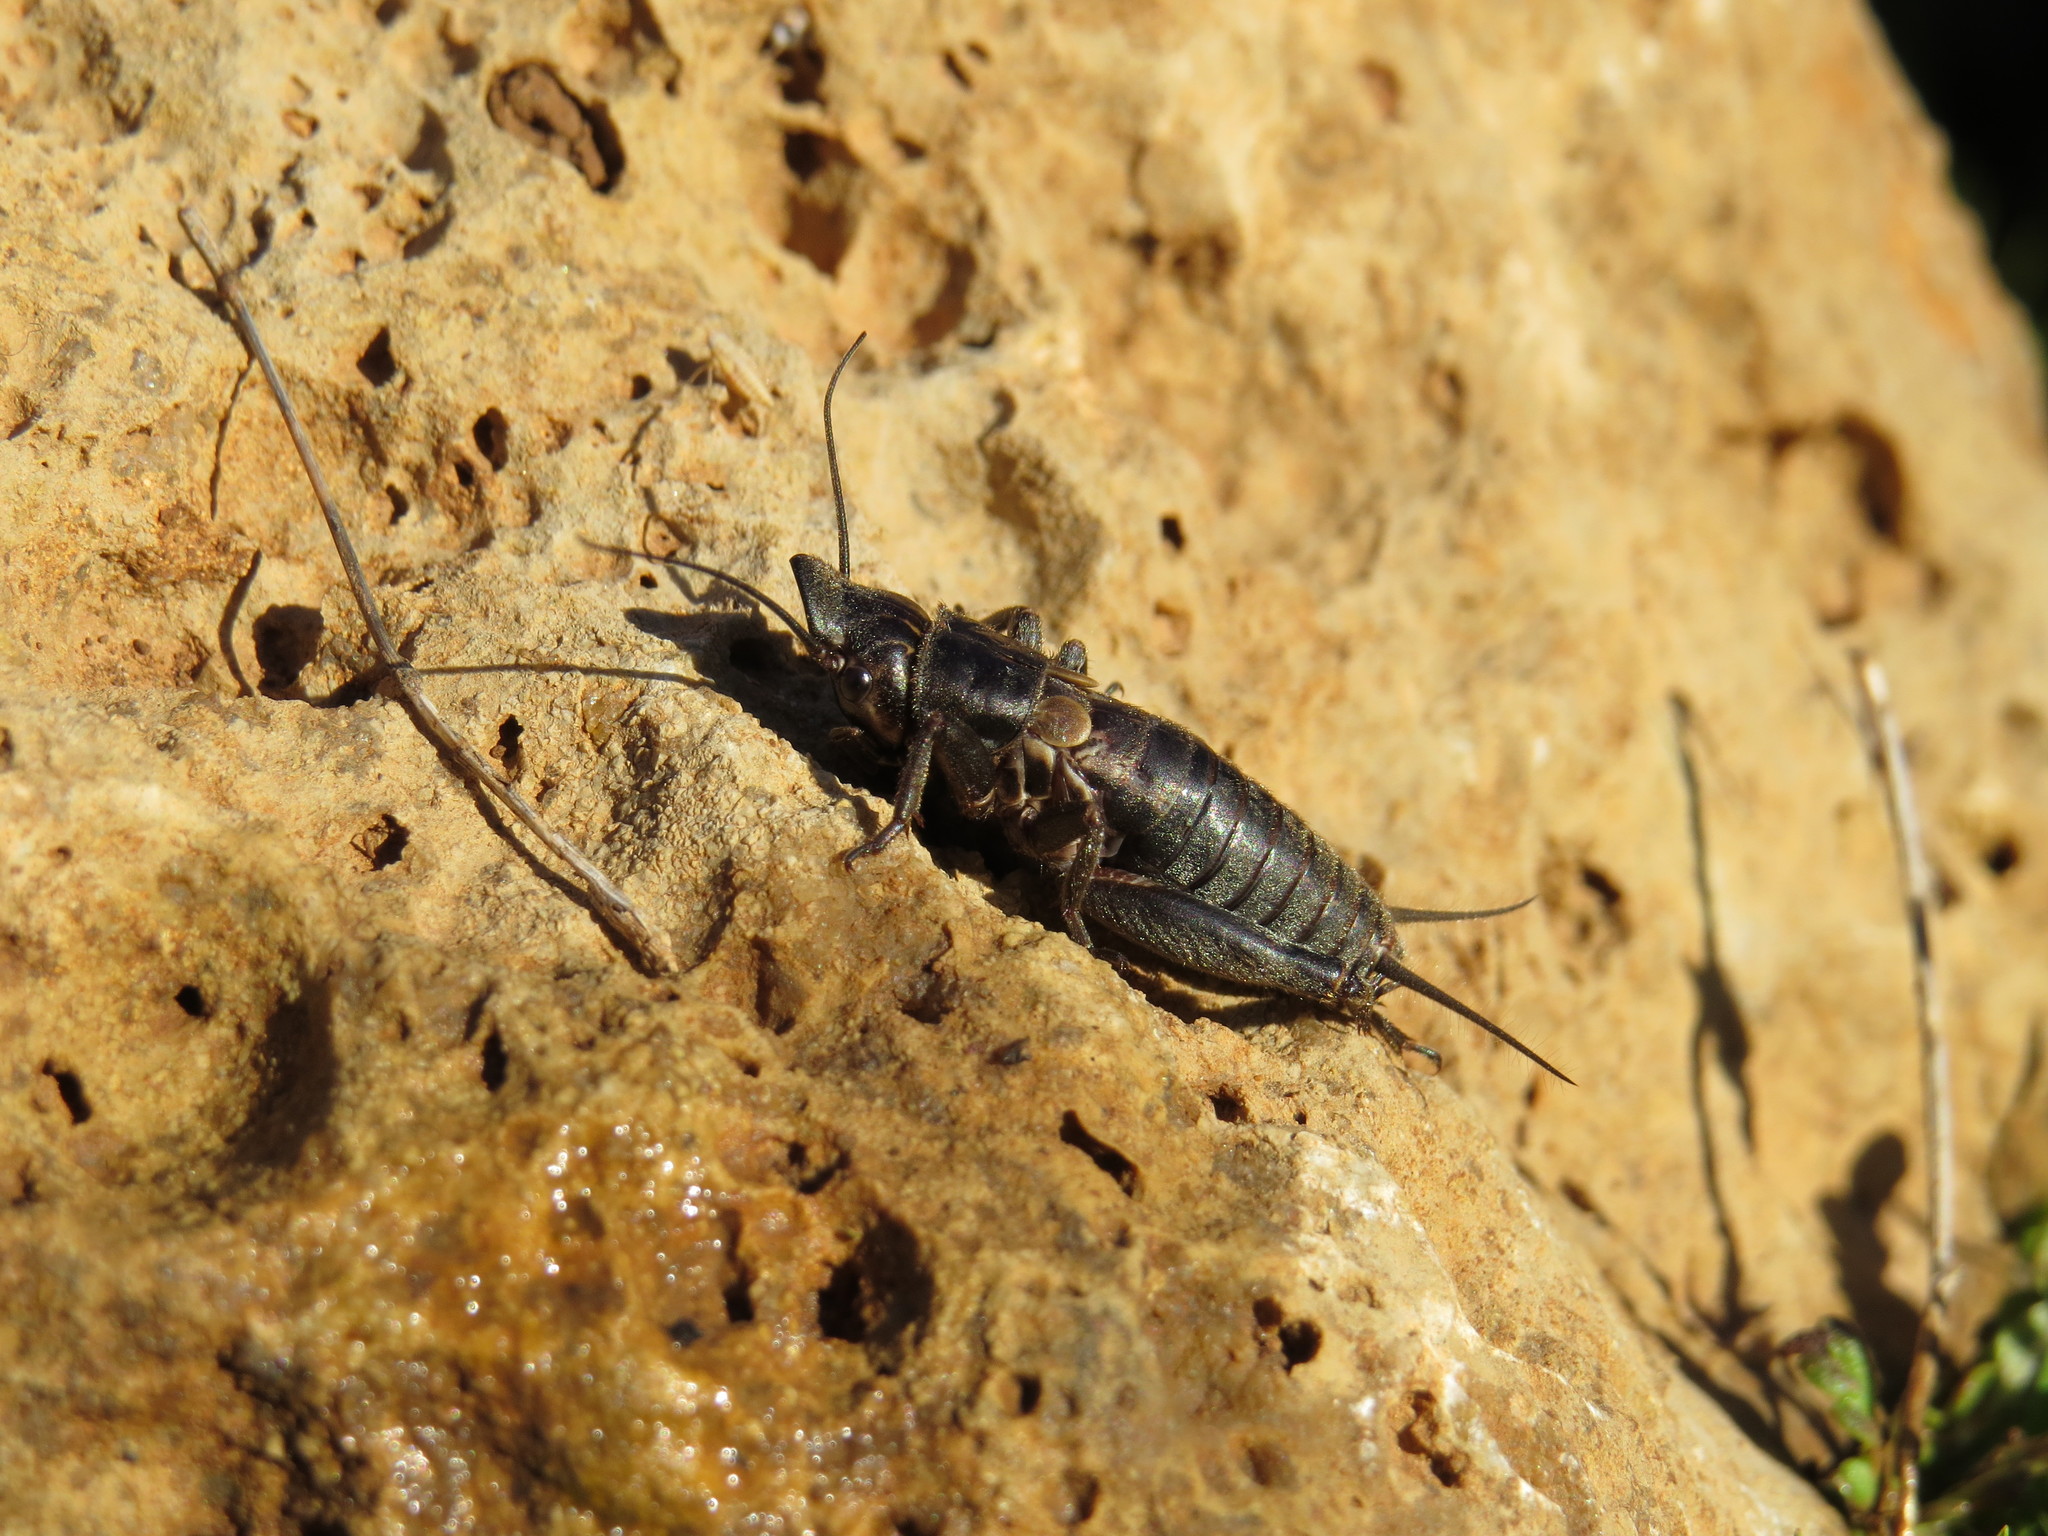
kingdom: Animalia
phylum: Arthropoda
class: Insecta
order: Orthoptera
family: Gryllidae
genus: Sciobia
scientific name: Sciobia lusitanica
